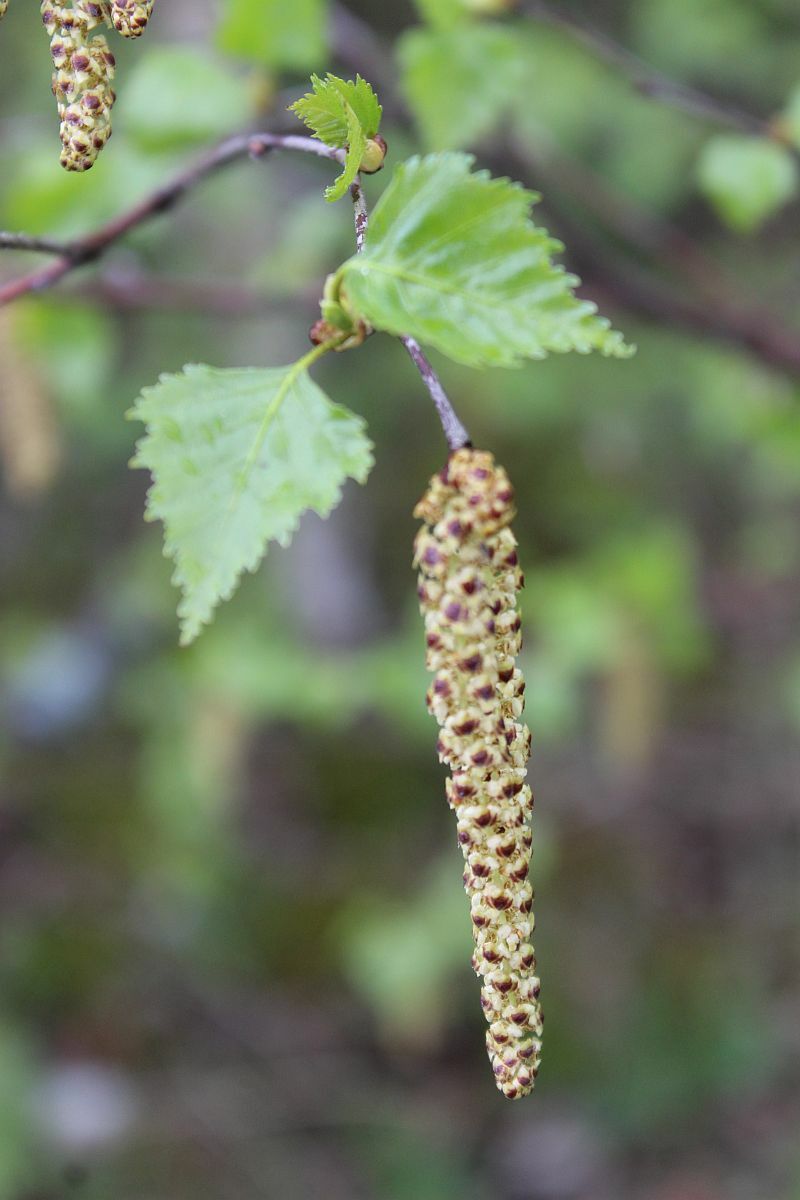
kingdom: Plantae
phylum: Tracheophyta
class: Magnoliopsida
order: Fagales
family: Betulaceae
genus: Betula
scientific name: Betula pendula
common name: Silver birch
